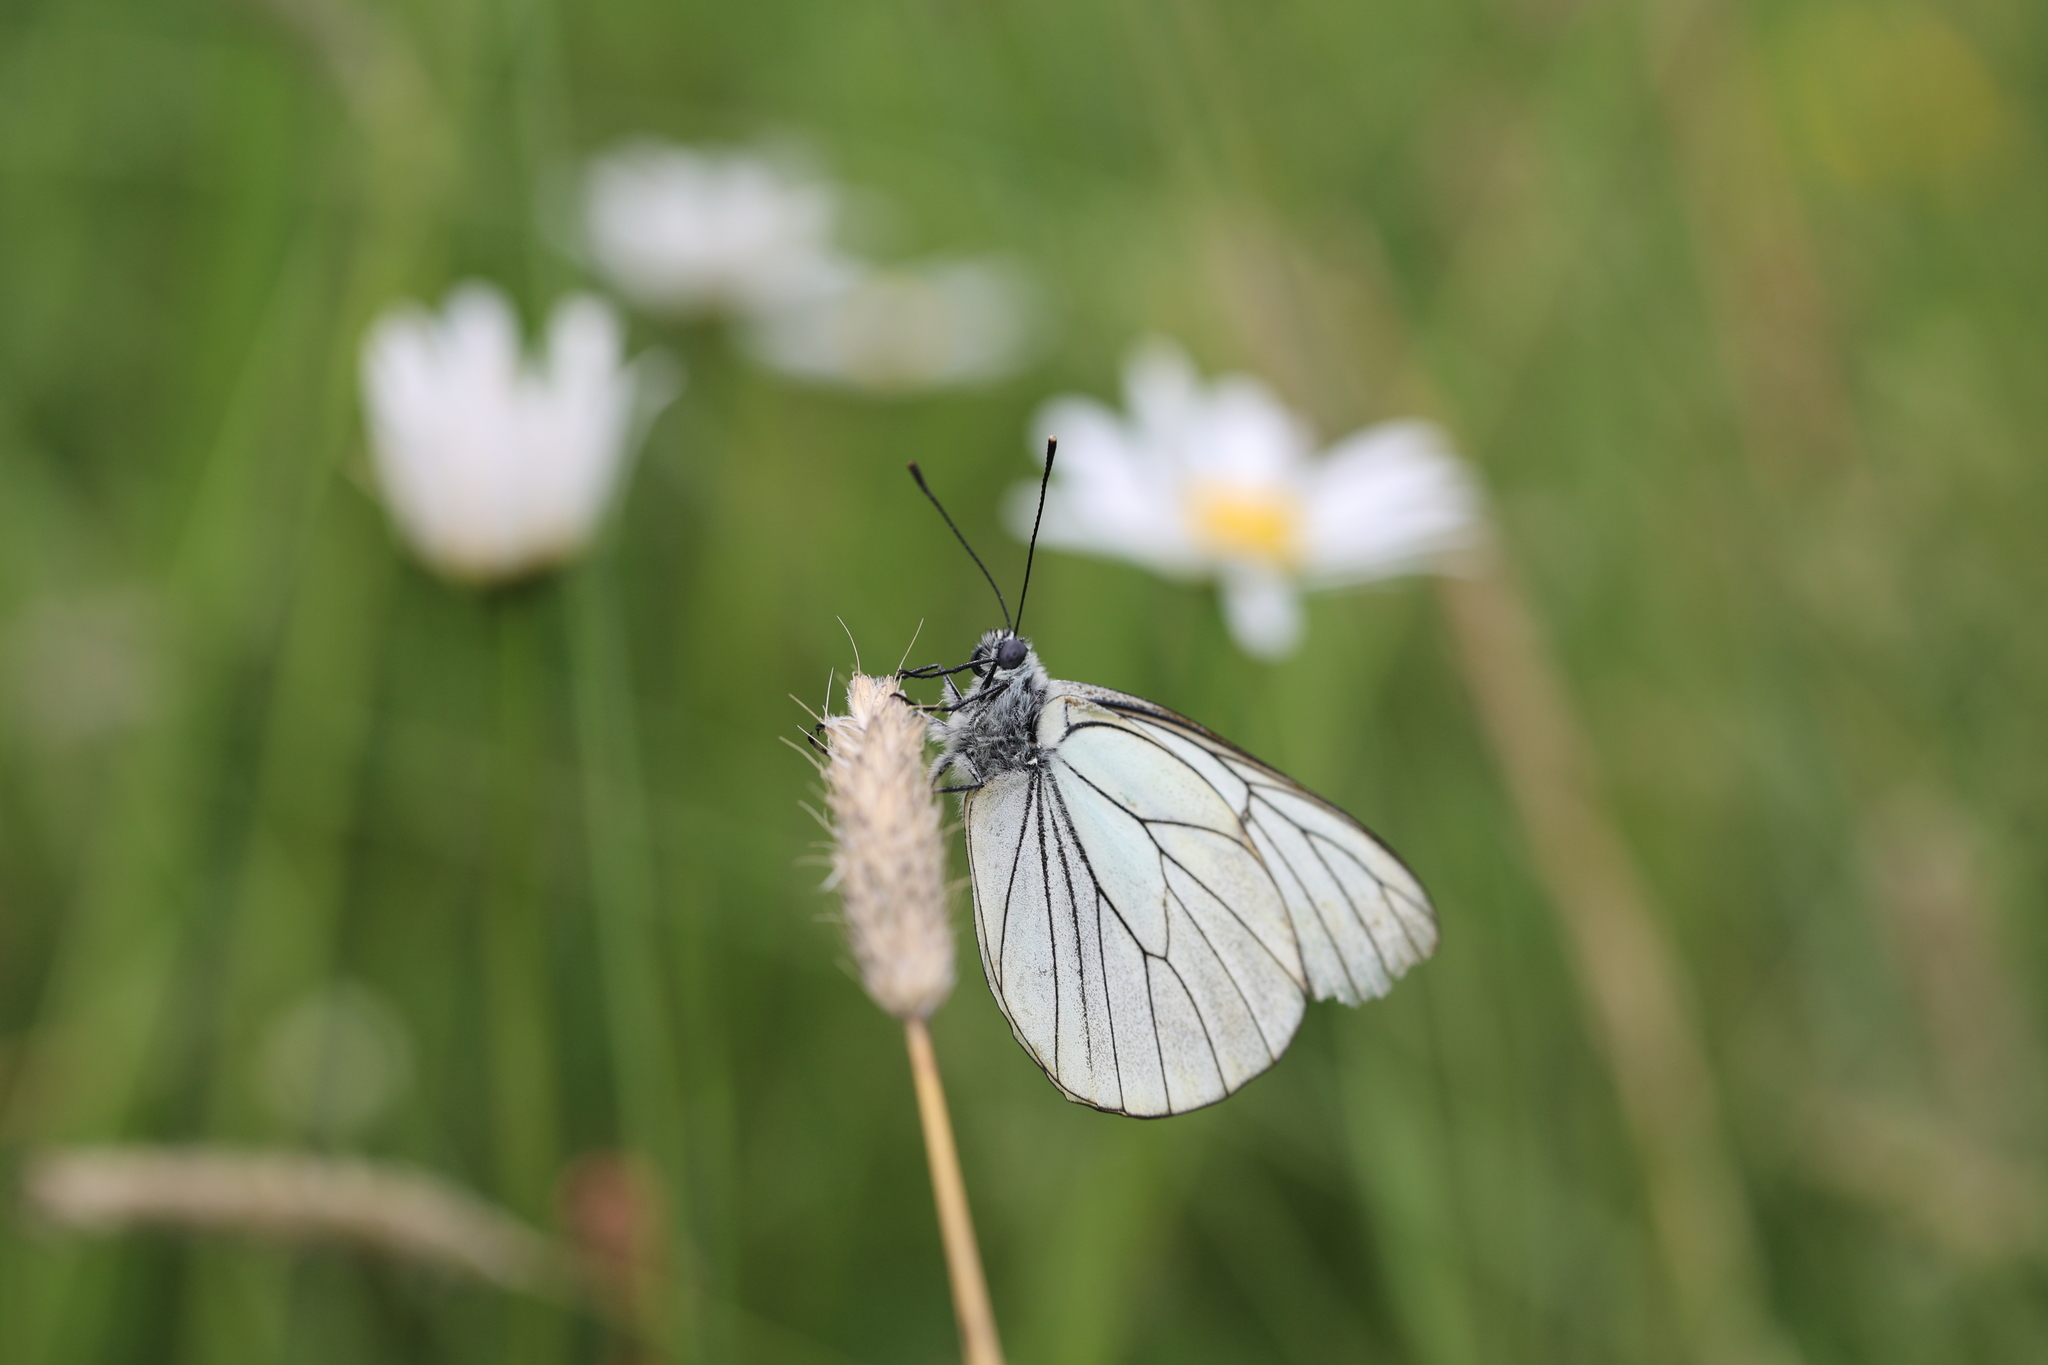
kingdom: Animalia
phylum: Arthropoda
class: Insecta
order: Lepidoptera
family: Pieridae
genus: Aporia
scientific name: Aporia crataegi
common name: Black-veined white
